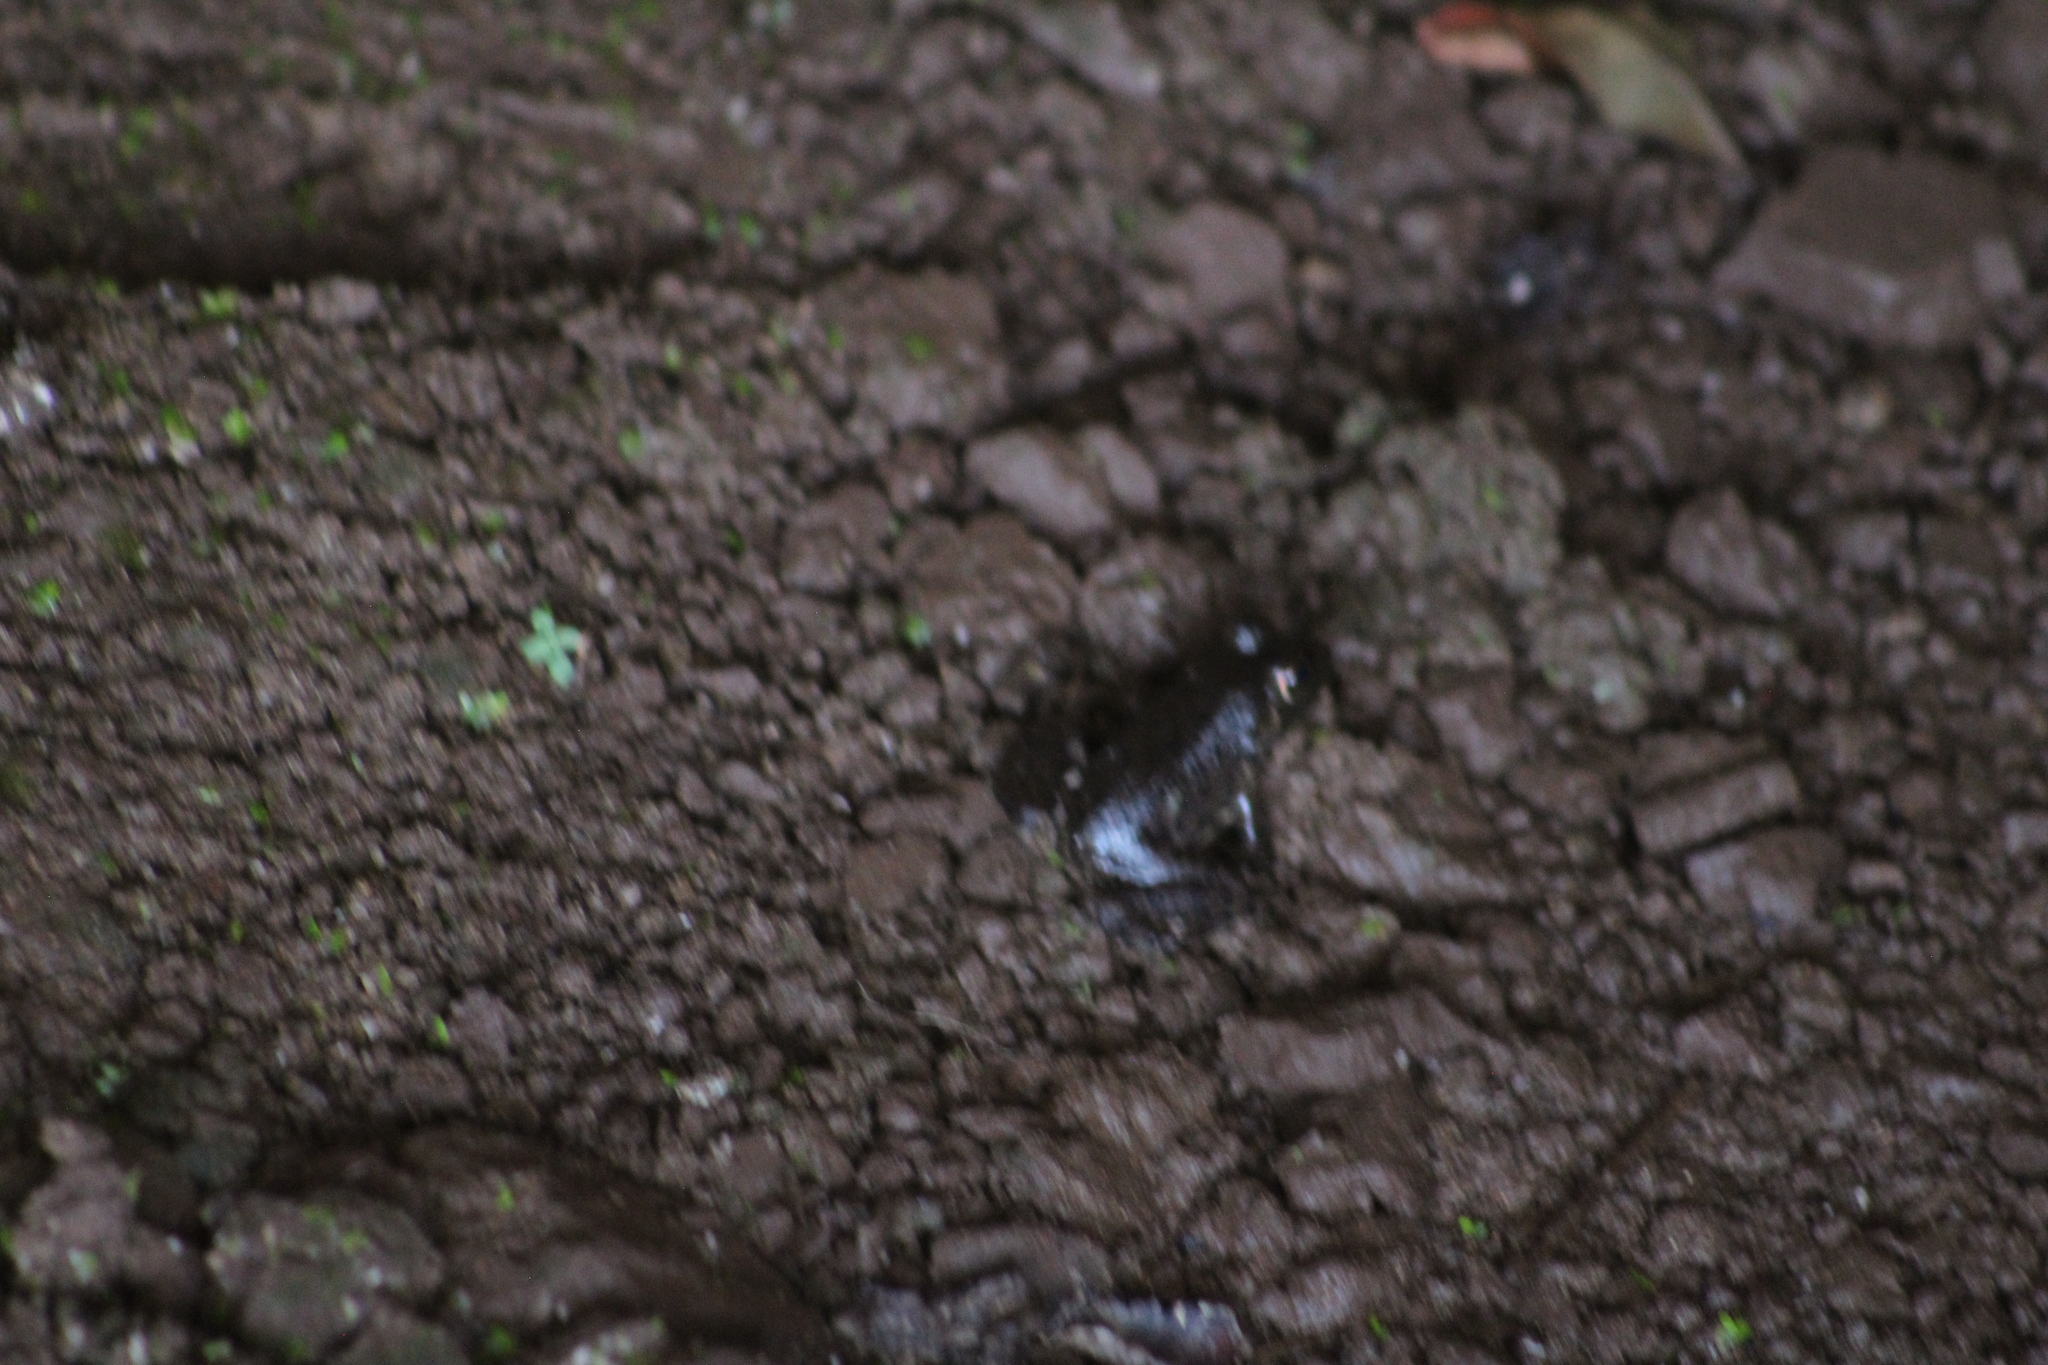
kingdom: Animalia
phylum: Chordata
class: Amphibia
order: Anura
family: Ranidae
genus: Lithobates
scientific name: Lithobates catesbeianus
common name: American bullfrog
